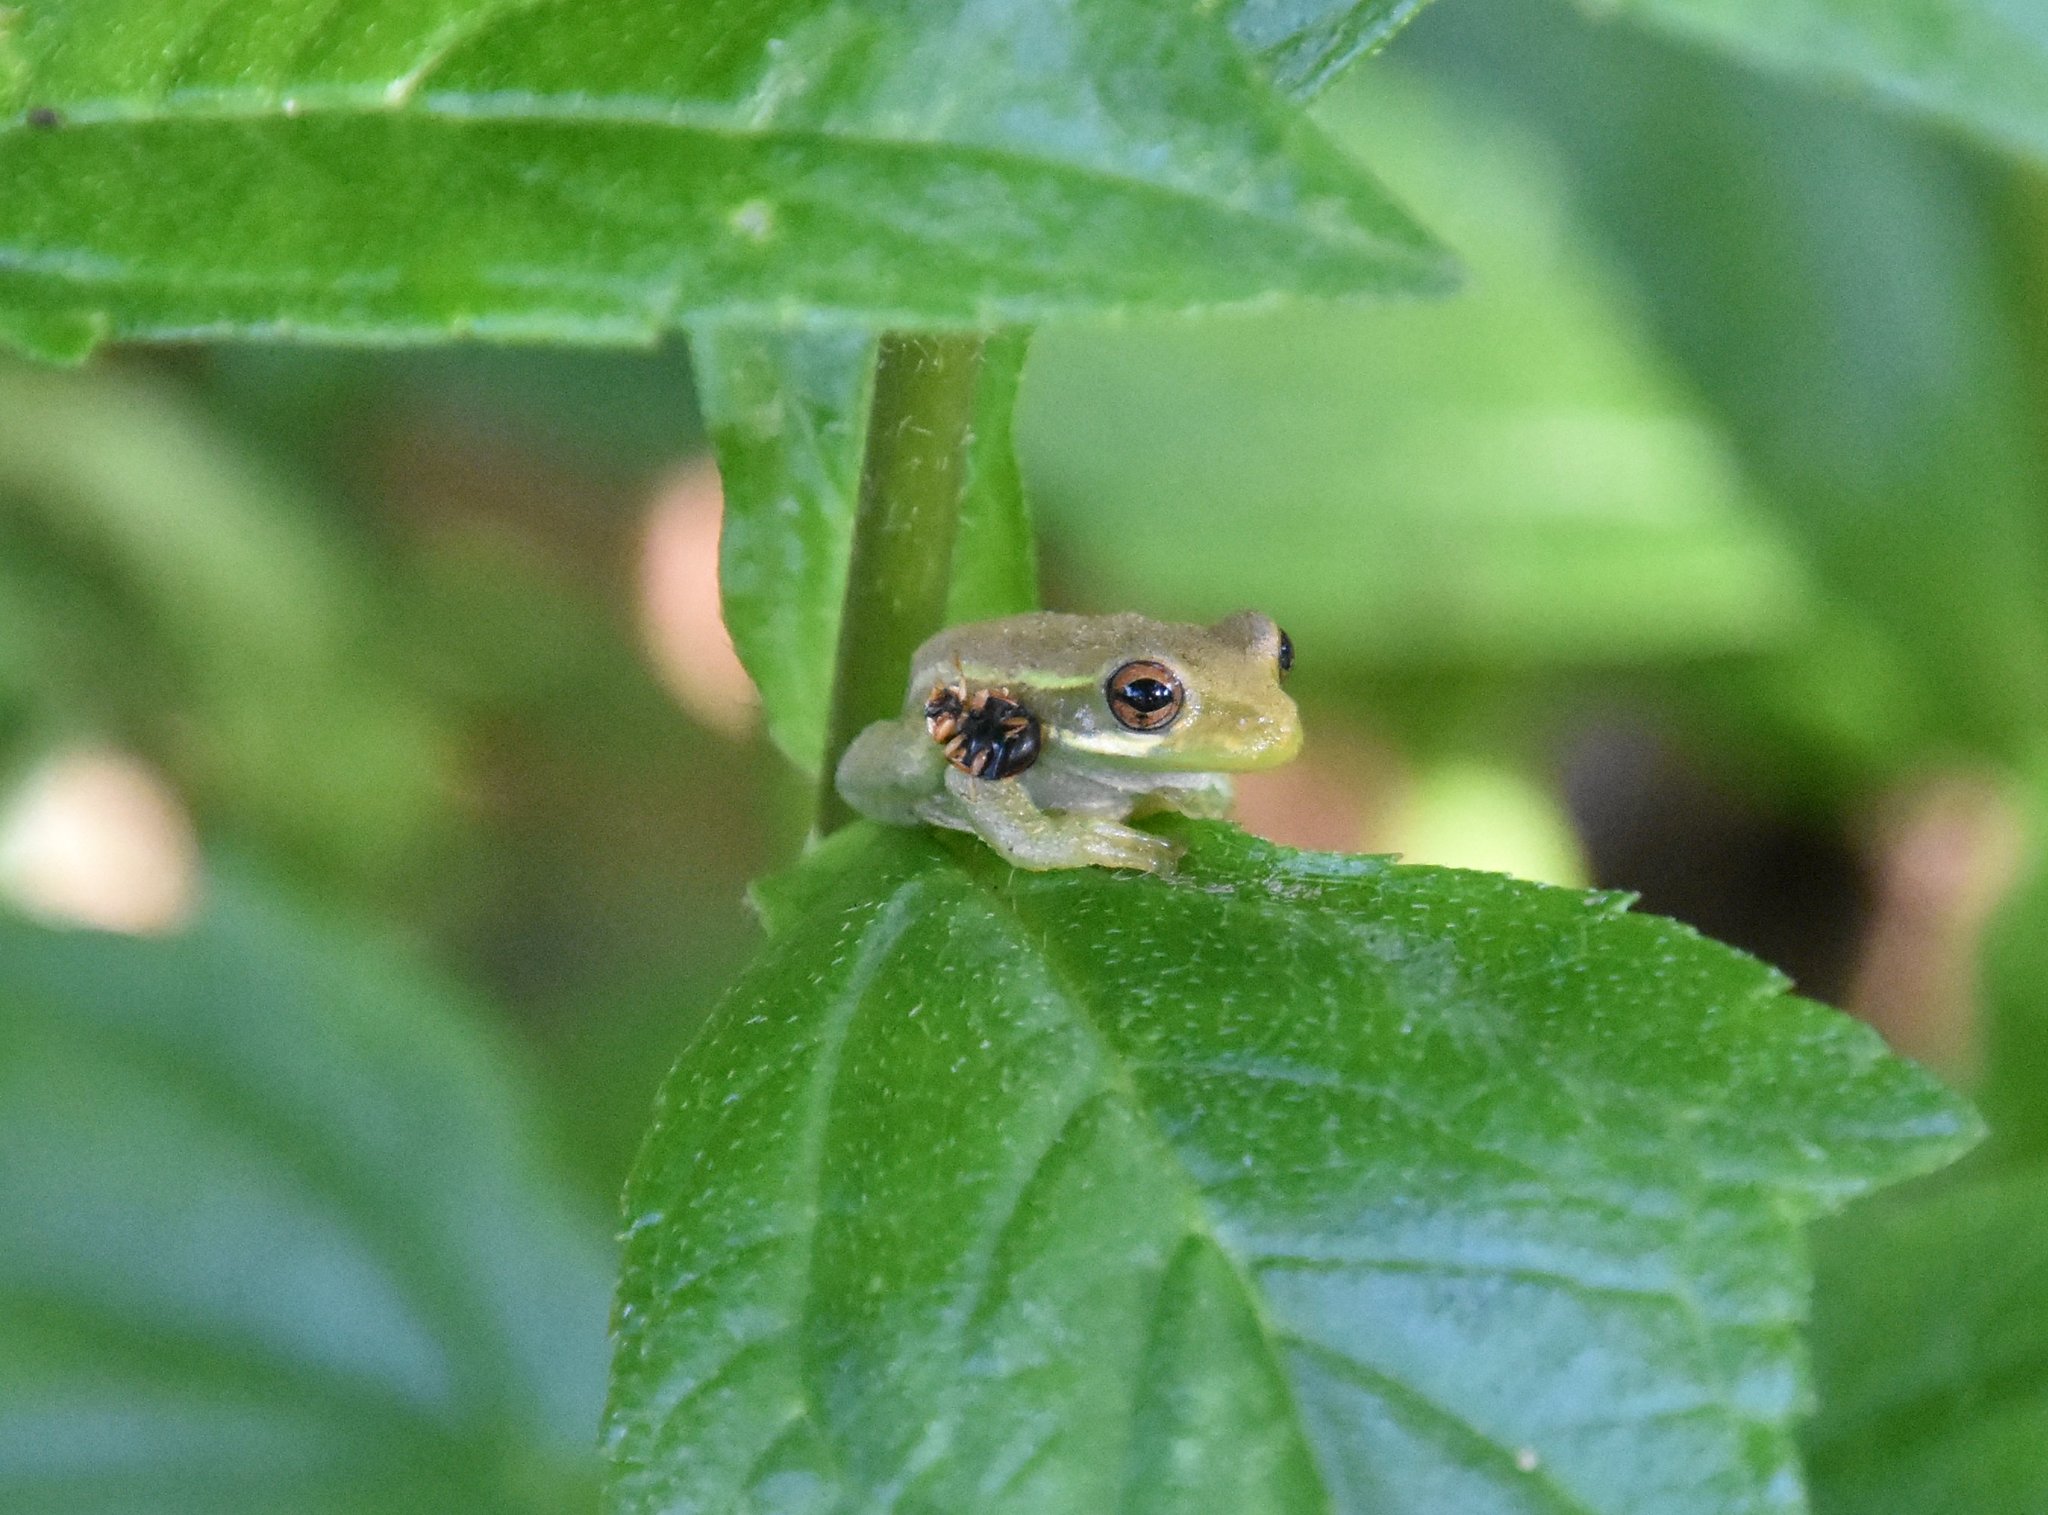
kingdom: Animalia
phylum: Chordata
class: Amphibia
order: Anura
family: Hylidae
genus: Osteopilus
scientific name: Osteopilus septentrionalis
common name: Cuban treefrog
